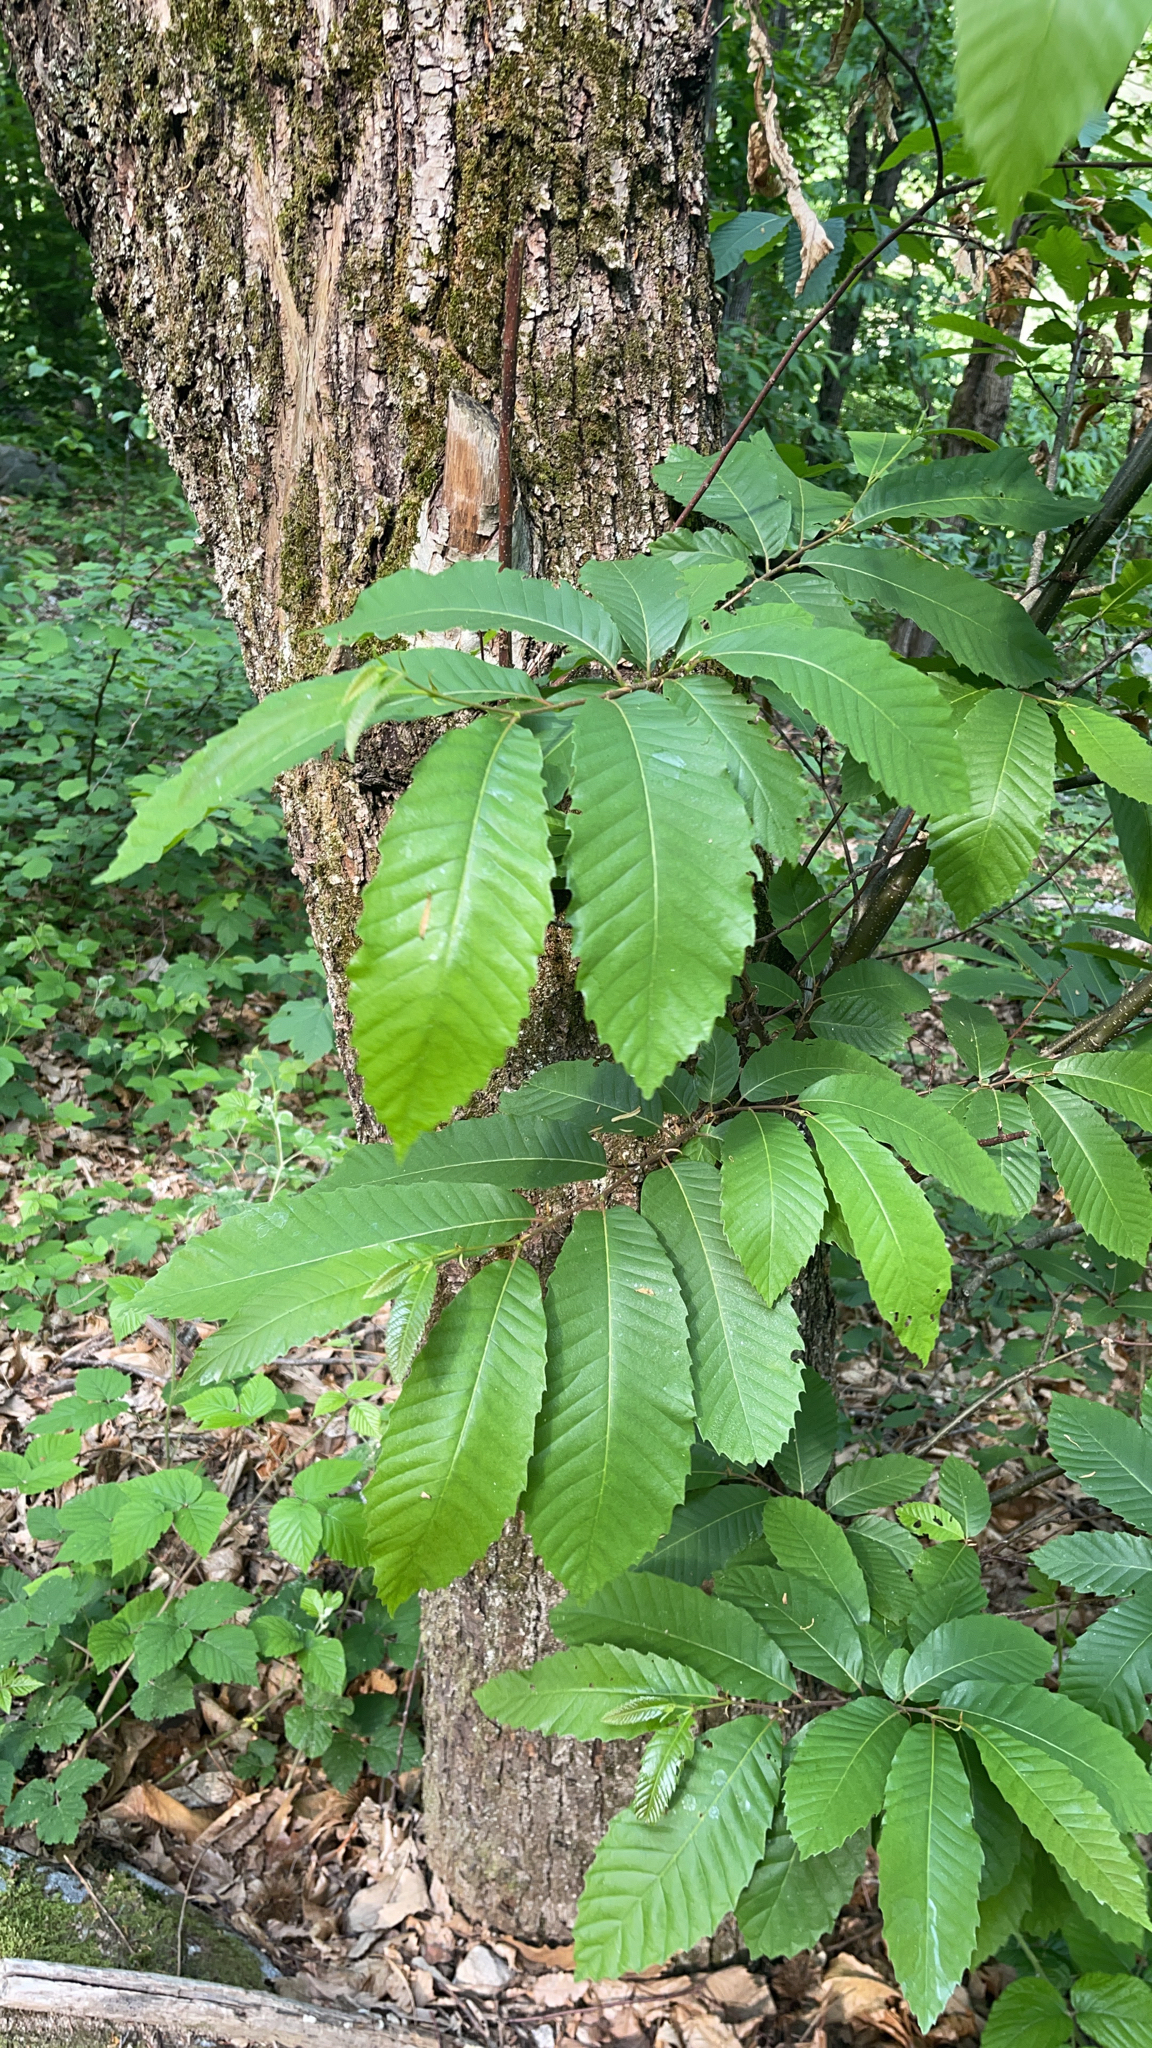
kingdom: Plantae
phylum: Tracheophyta
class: Magnoliopsida
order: Fagales
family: Fagaceae
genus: Castanea
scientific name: Castanea sativa
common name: Sweet chestnut
